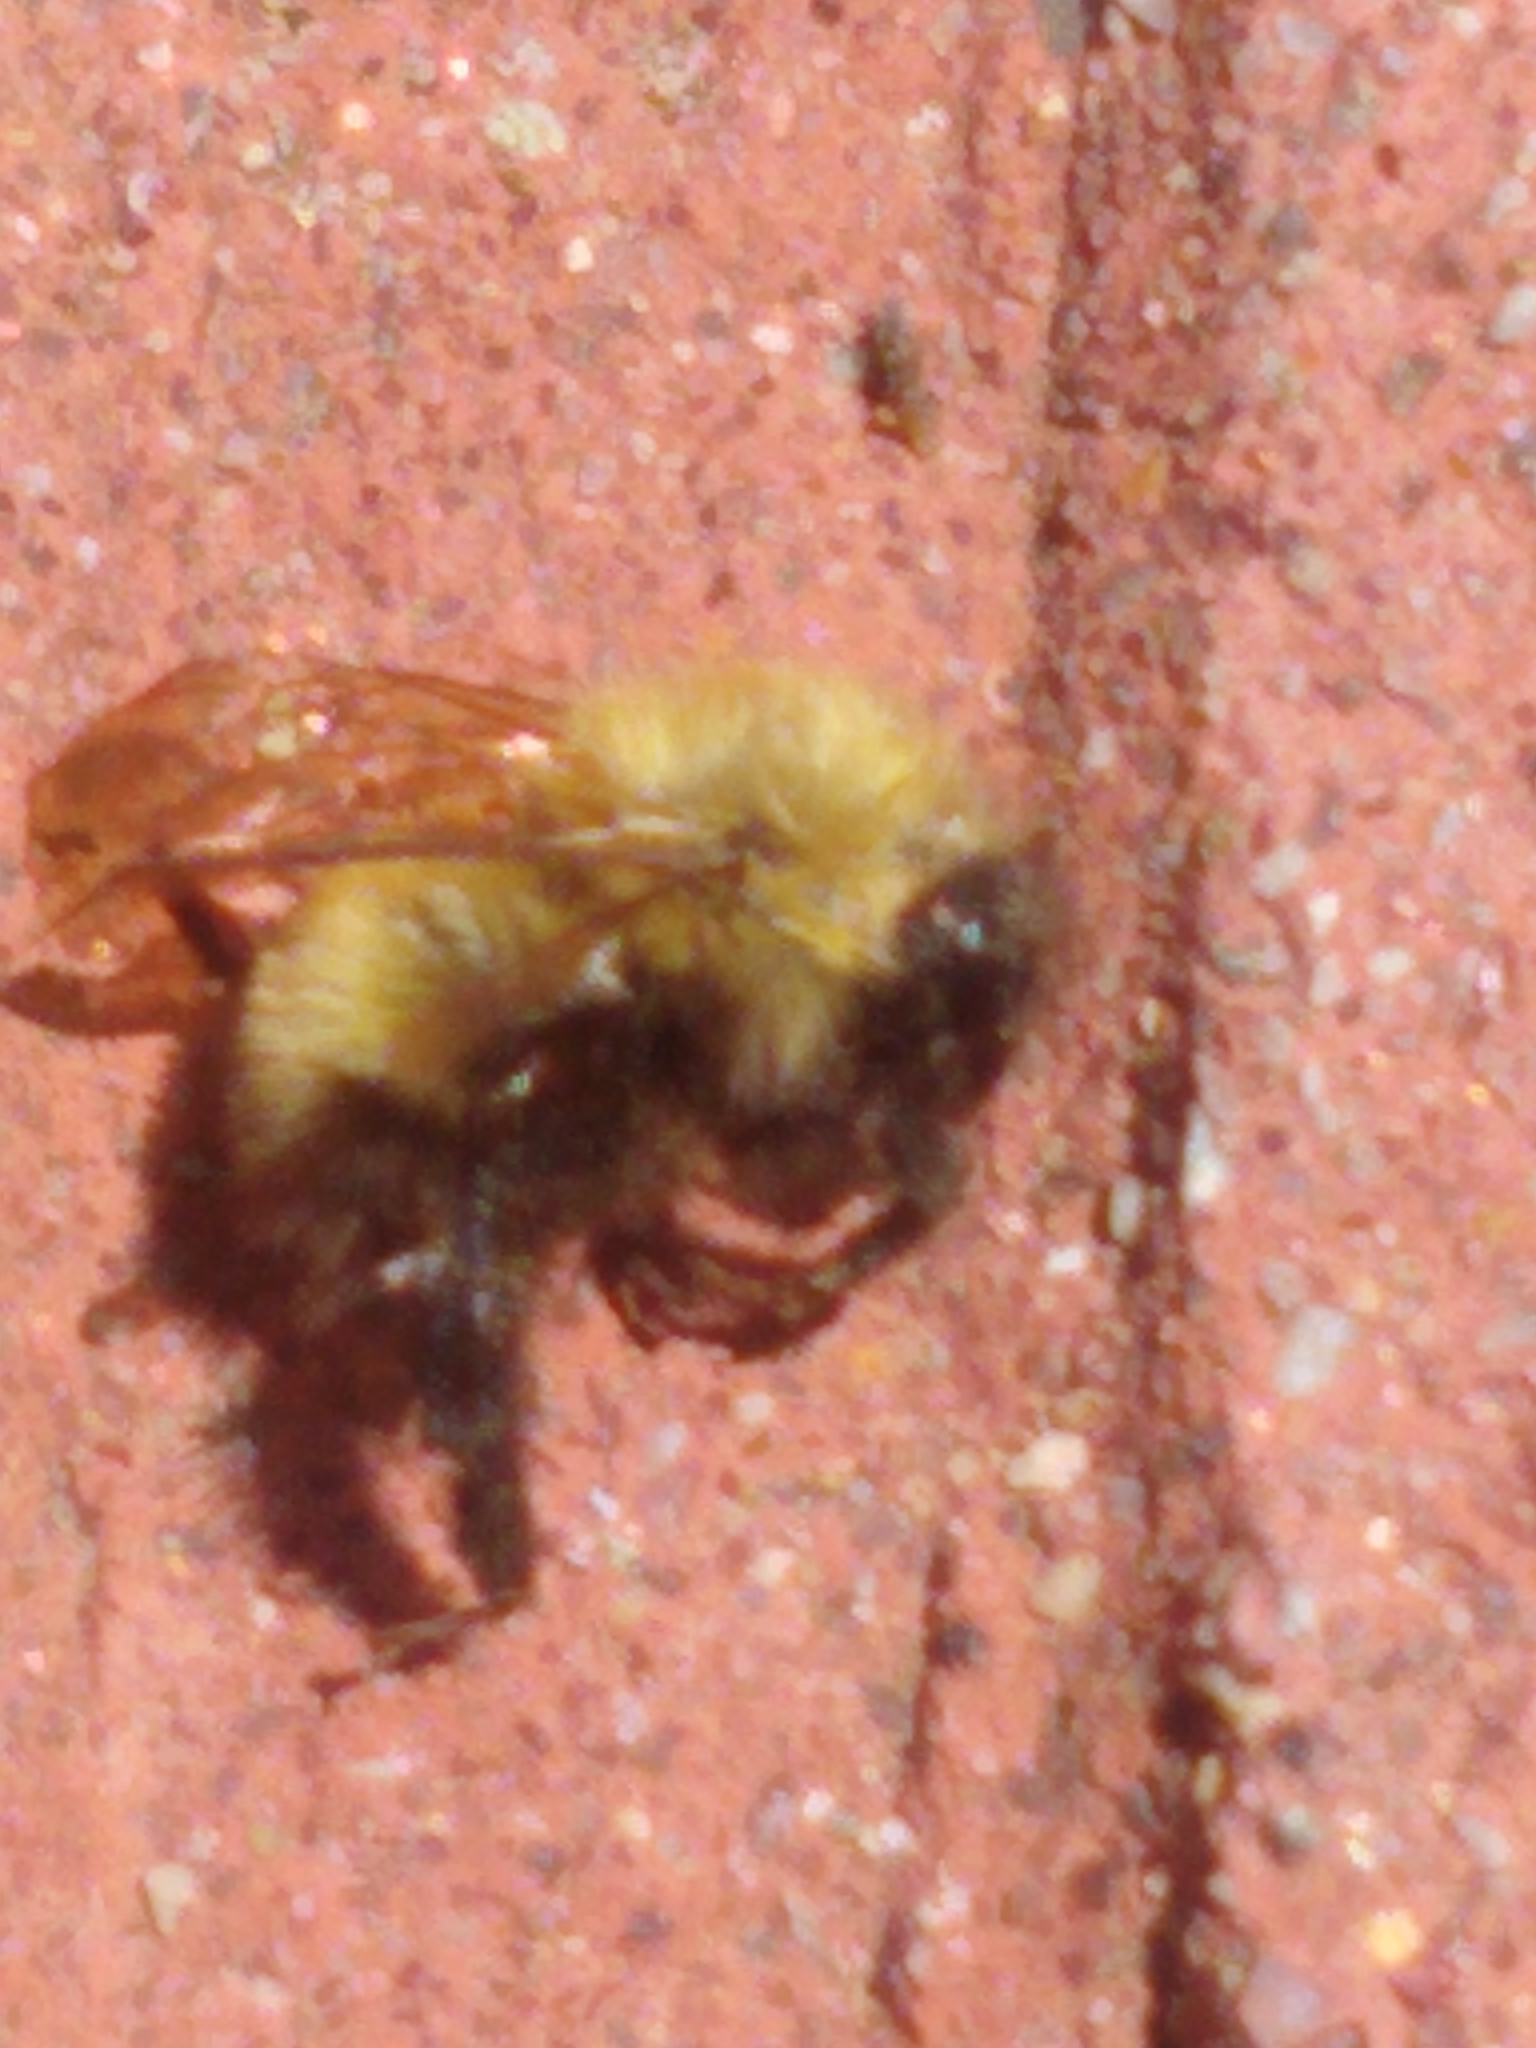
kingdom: Animalia
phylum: Arthropoda
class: Insecta
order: Hymenoptera
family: Apidae
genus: Bombus
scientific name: Bombus perplexus
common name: Confusing bumble bee
